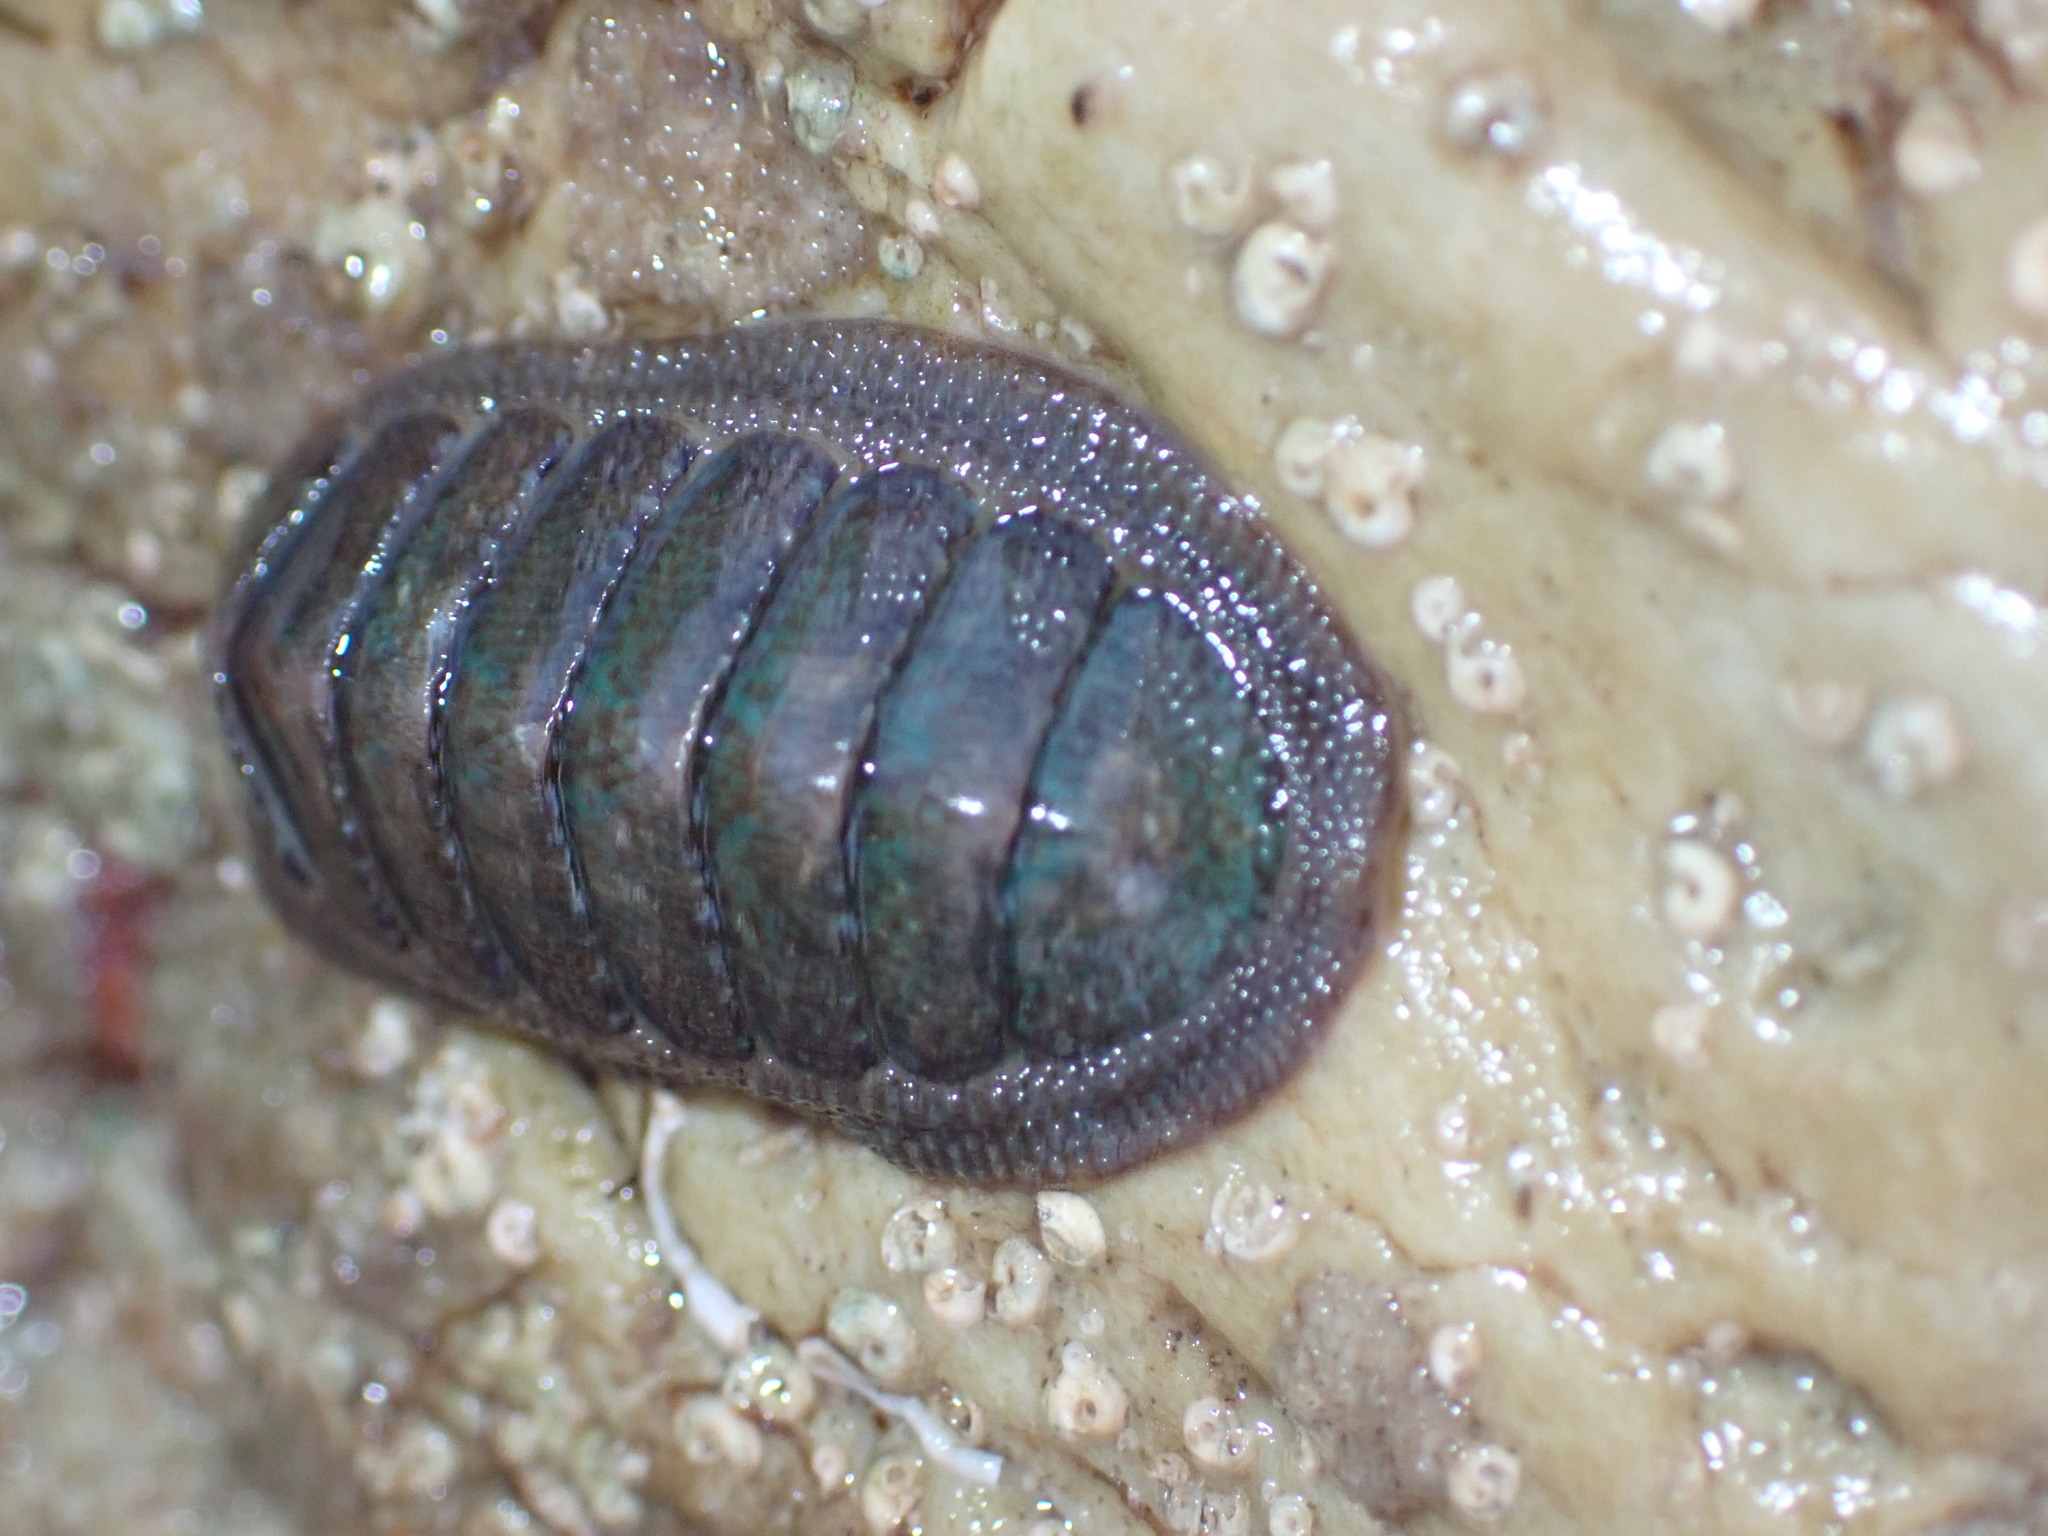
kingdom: Animalia
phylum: Mollusca
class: Polyplacophora
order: Chitonida
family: Ischnochitonidae
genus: Ischnochiton
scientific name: Ischnochiton australis
